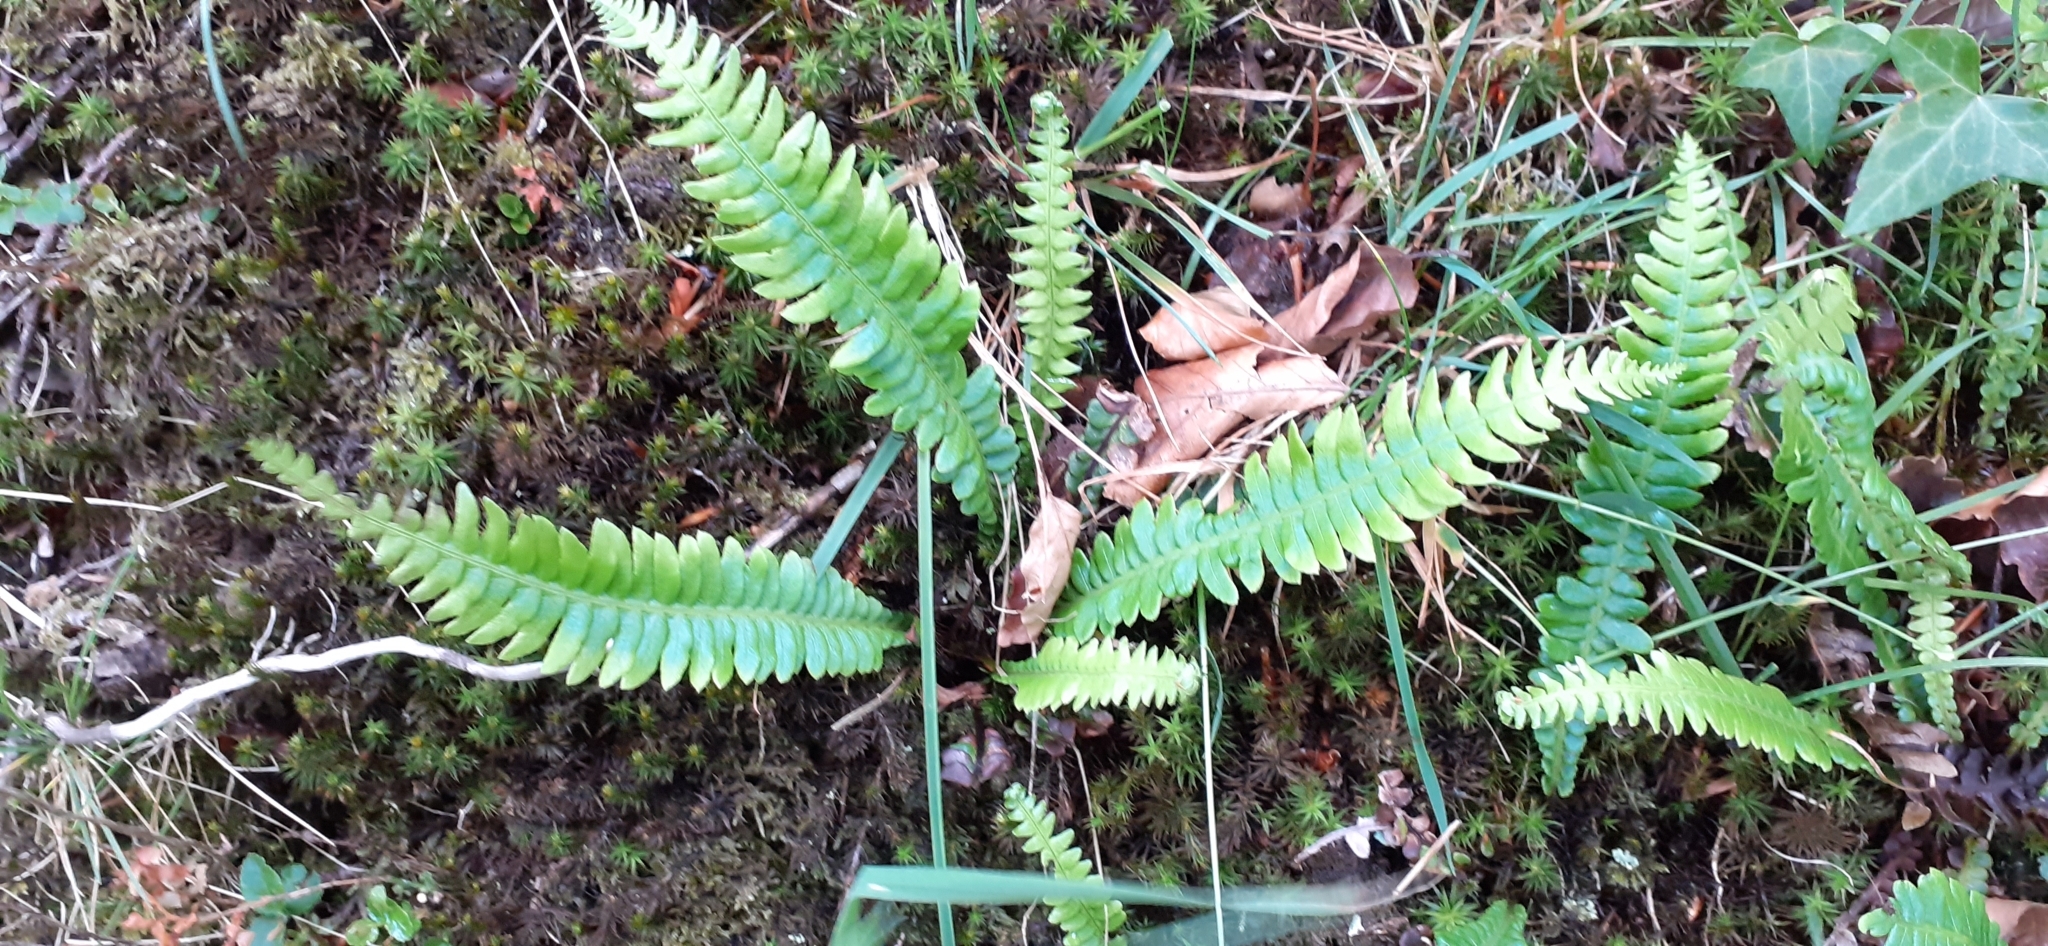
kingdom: Plantae
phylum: Tracheophyta
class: Polypodiopsida
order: Polypodiales
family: Blechnaceae
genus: Struthiopteris
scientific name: Struthiopteris spicant
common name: Deer fern
